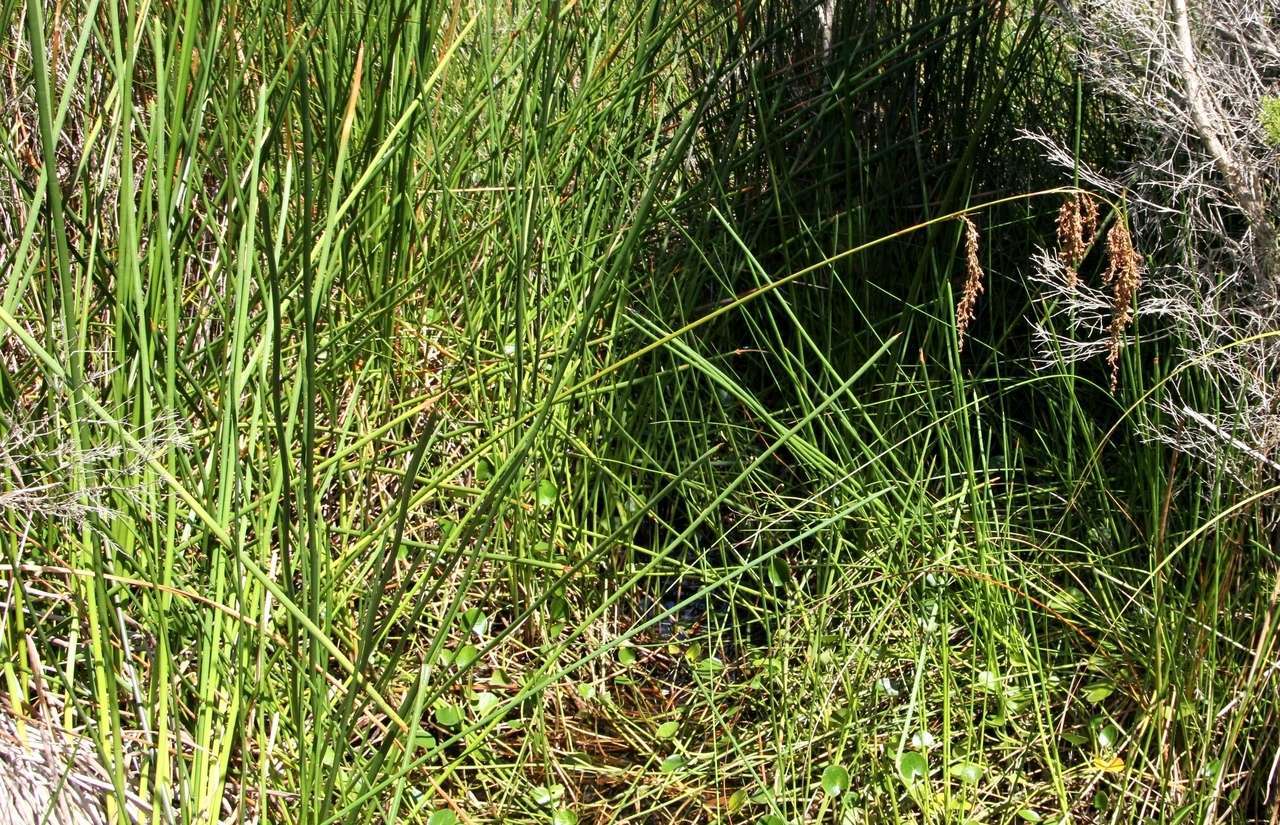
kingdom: Plantae
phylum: Tracheophyta
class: Liliopsida
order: Poales
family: Cyperaceae
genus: Machaerina
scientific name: Machaerina articulata
